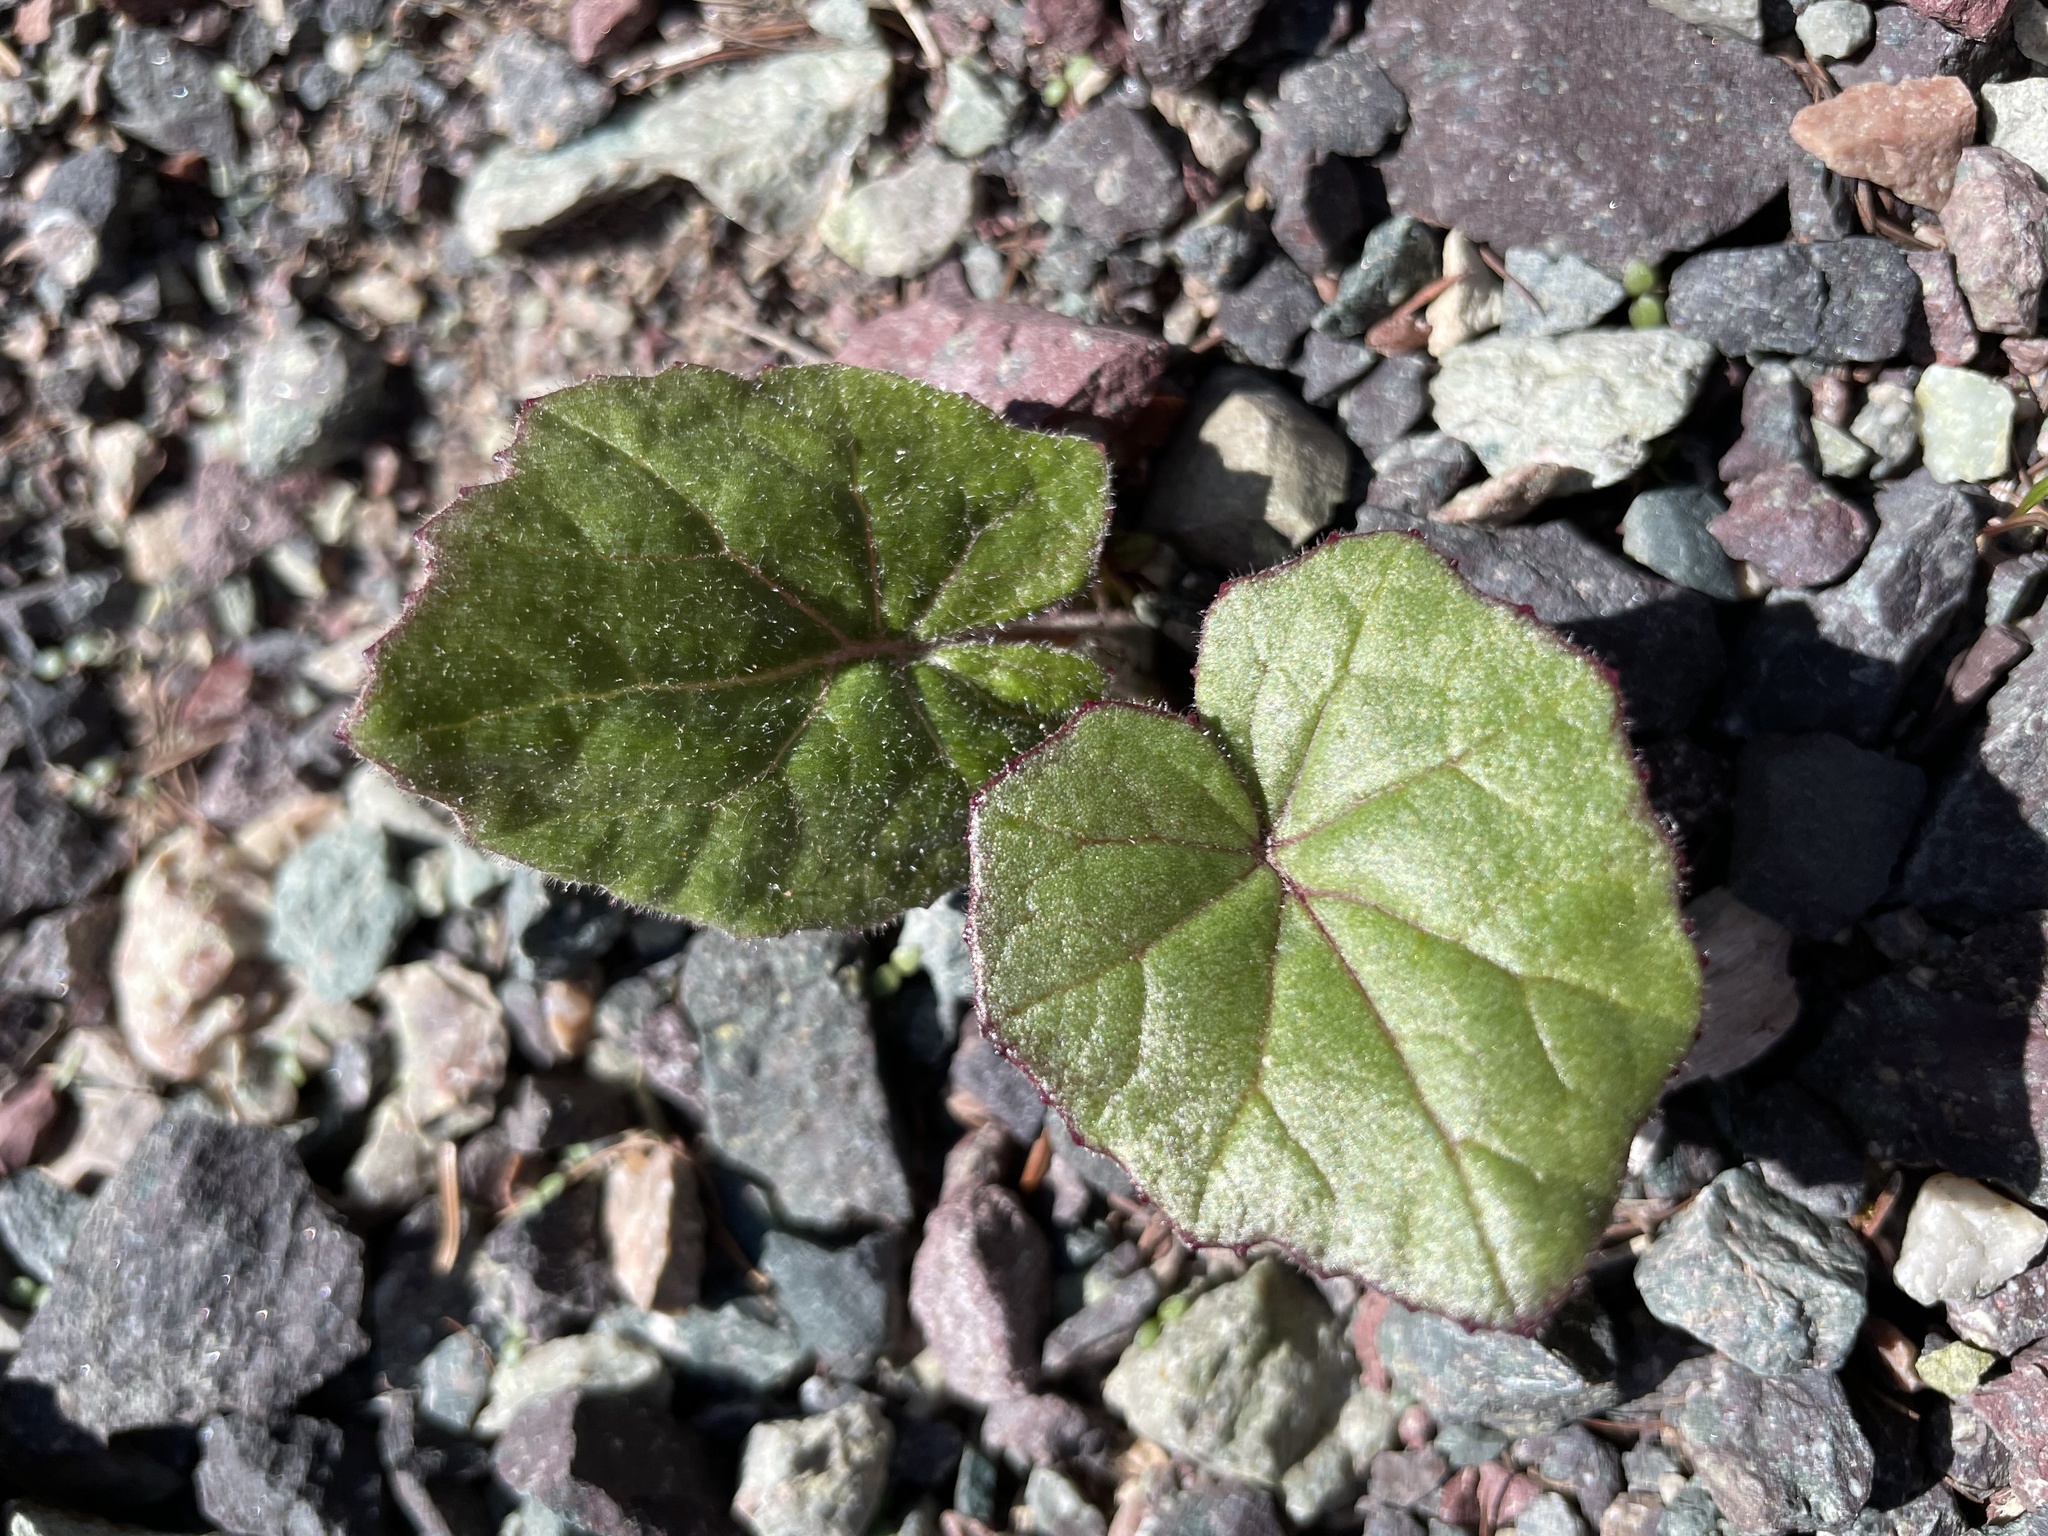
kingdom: Plantae
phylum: Tracheophyta
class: Magnoliopsida
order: Asterales
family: Asteraceae
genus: Tussilago
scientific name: Tussilago farfara
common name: Coltsfoot
